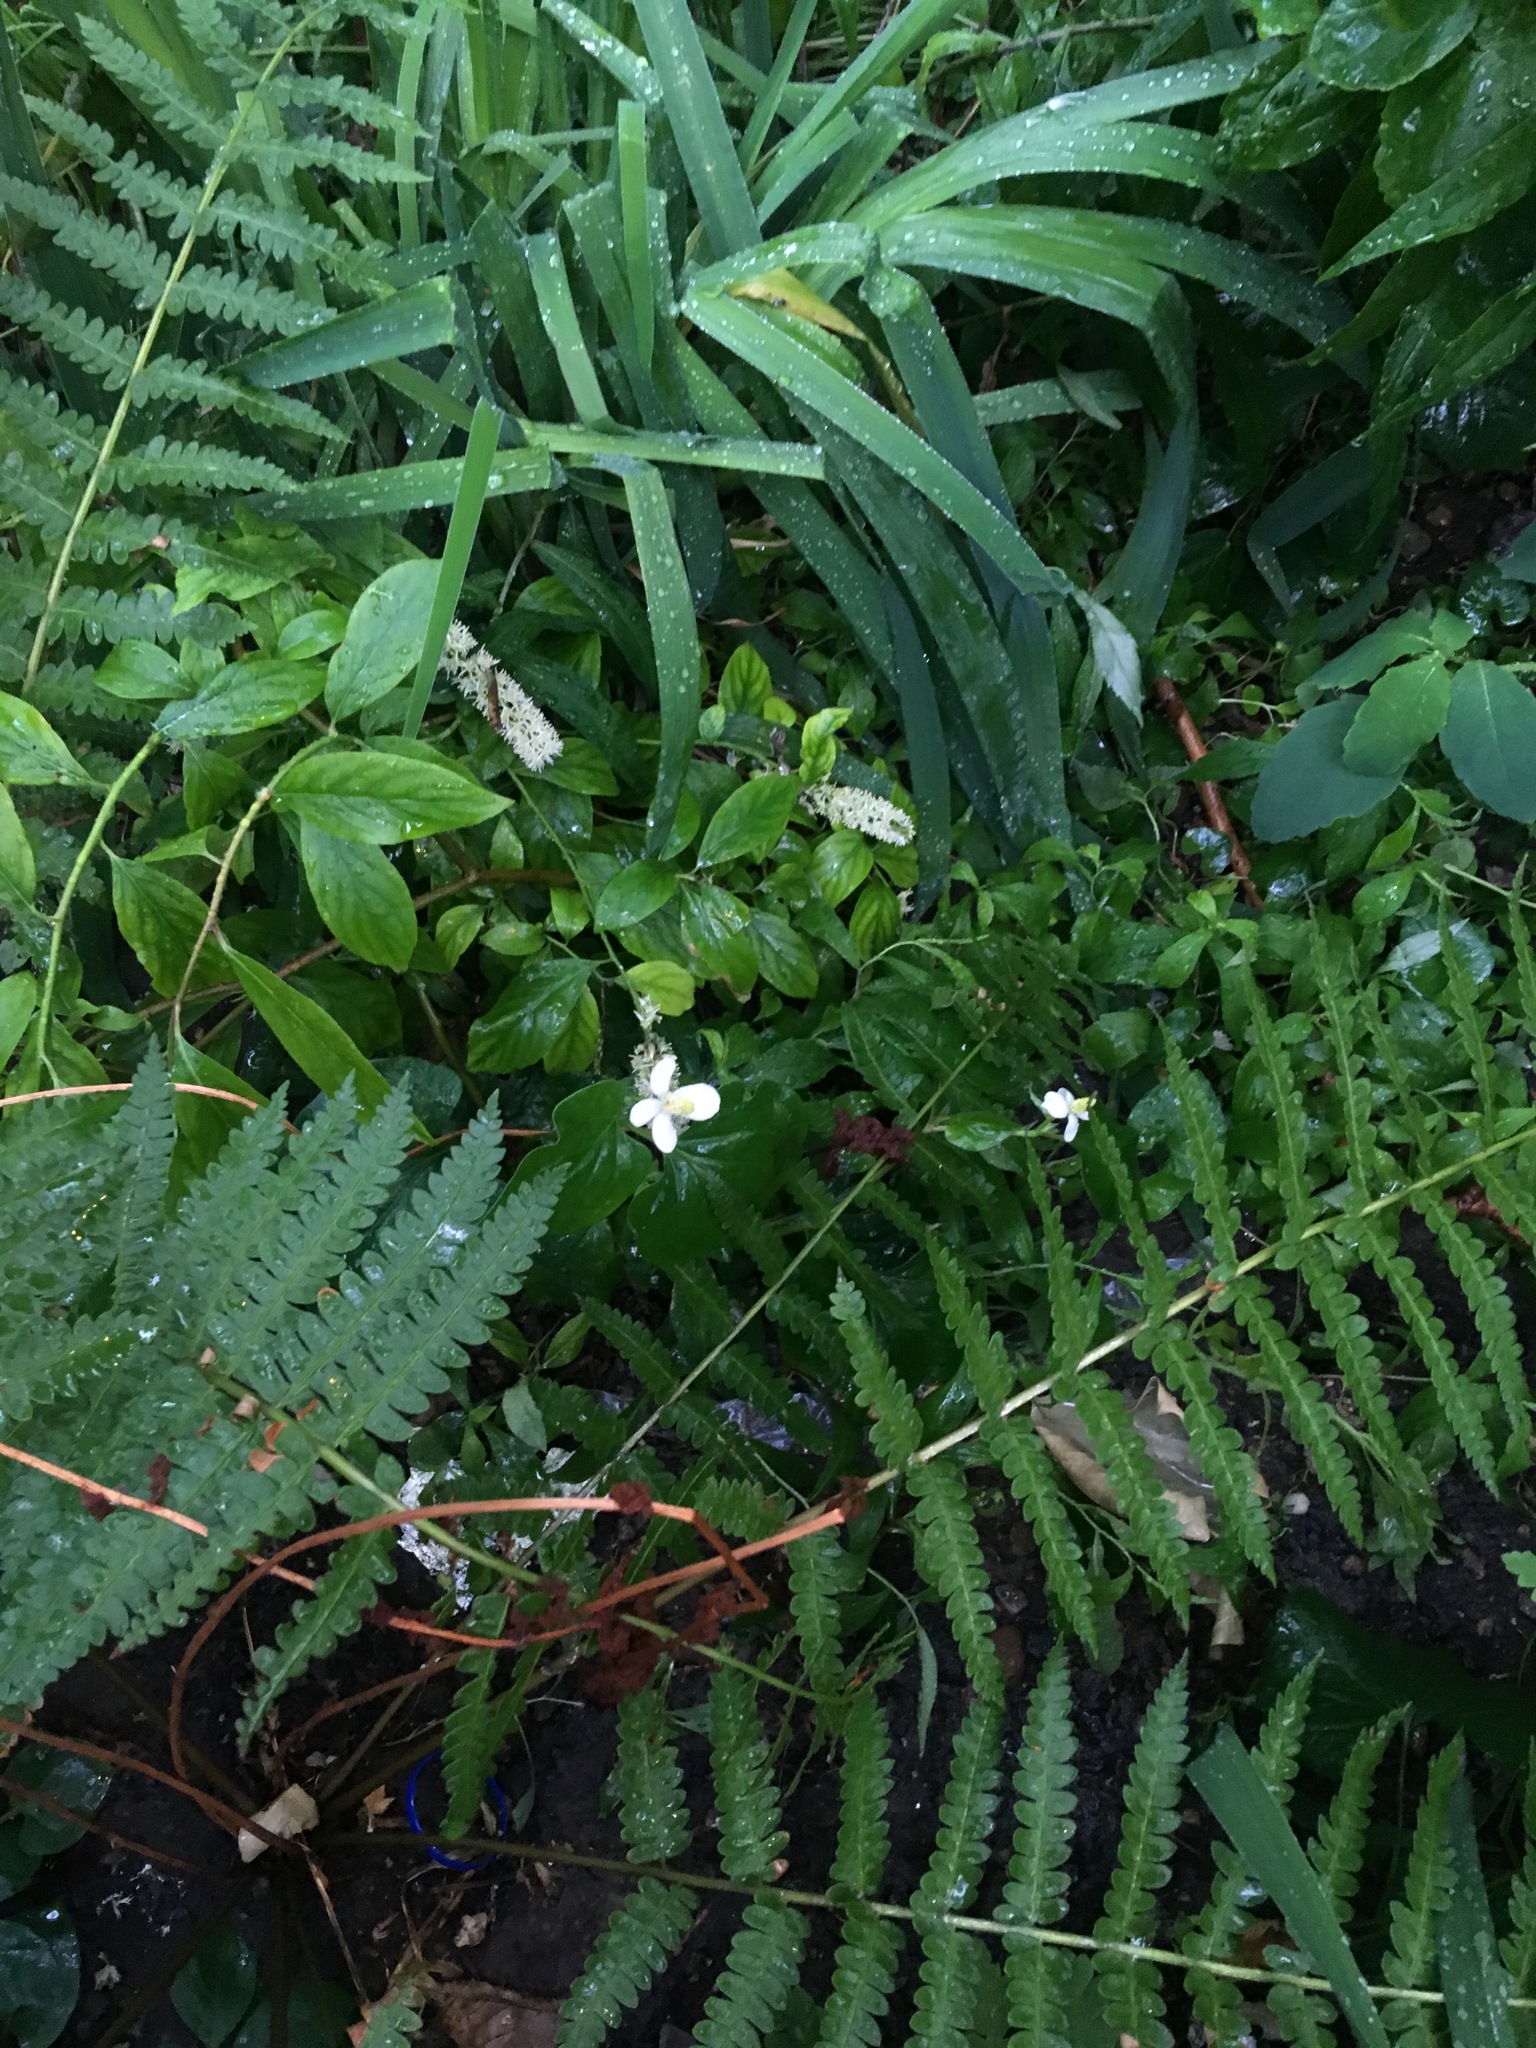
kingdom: Plantae
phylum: Tracheophyta
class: Magnoliopsida
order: Piperales
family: Saururaceae
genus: Houttuynia
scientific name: Houttuynia cordata
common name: Chameleon
